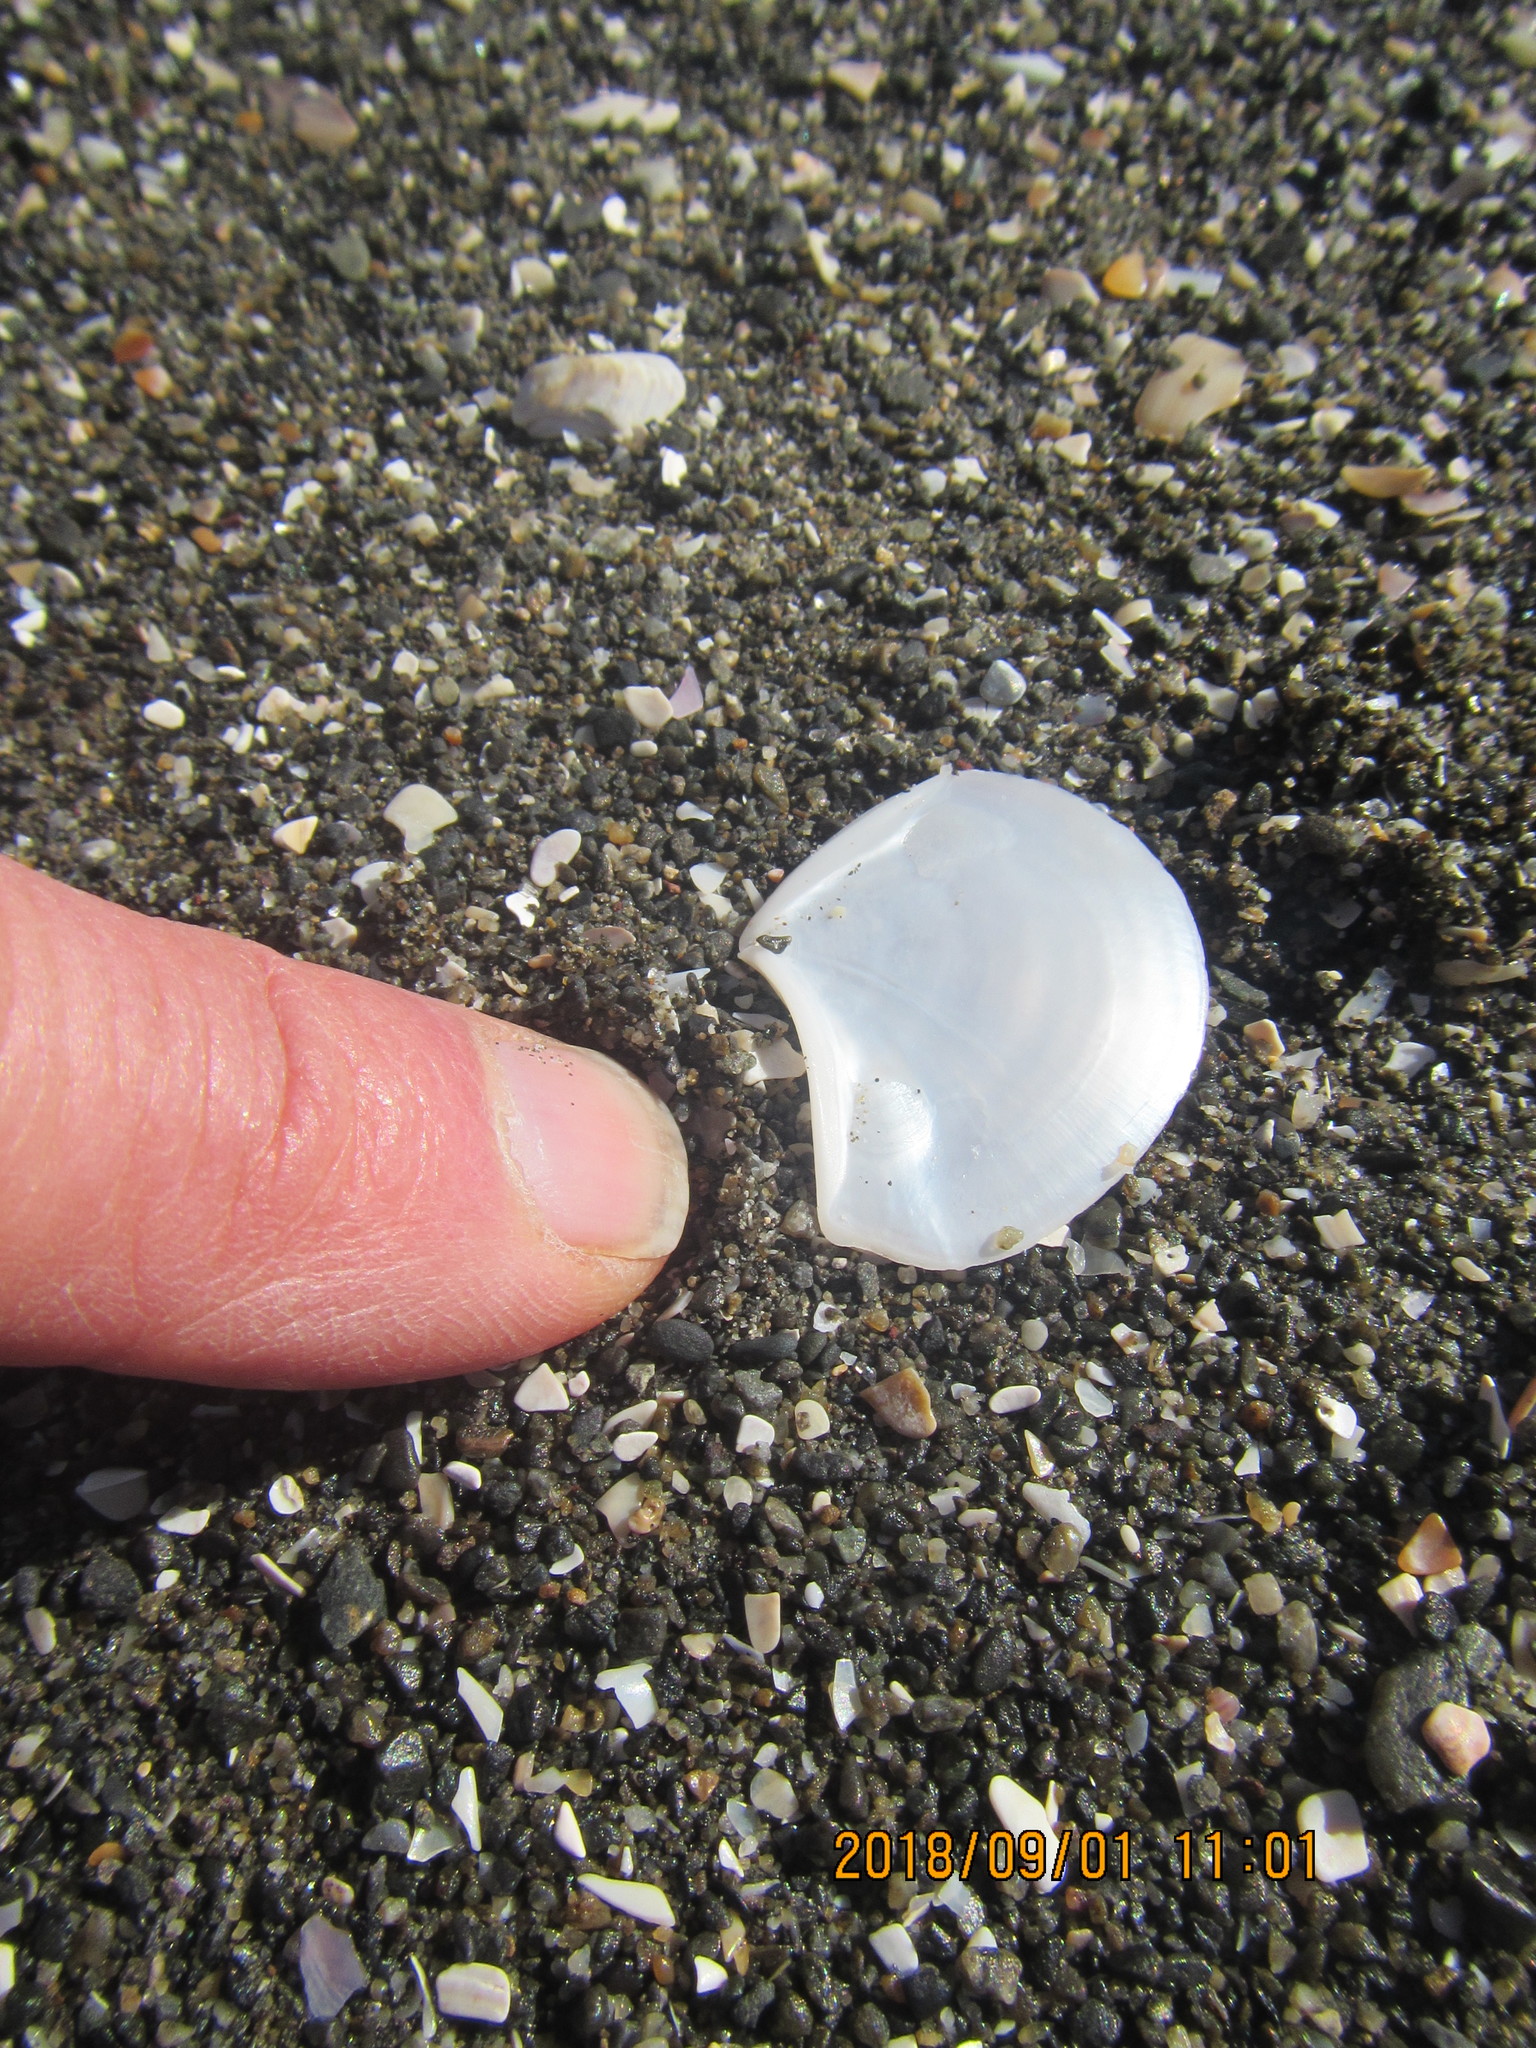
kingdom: Animalia
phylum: Mollusca
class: Bivalvia
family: Myochamidae
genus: Myadora
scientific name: Myadora striata
